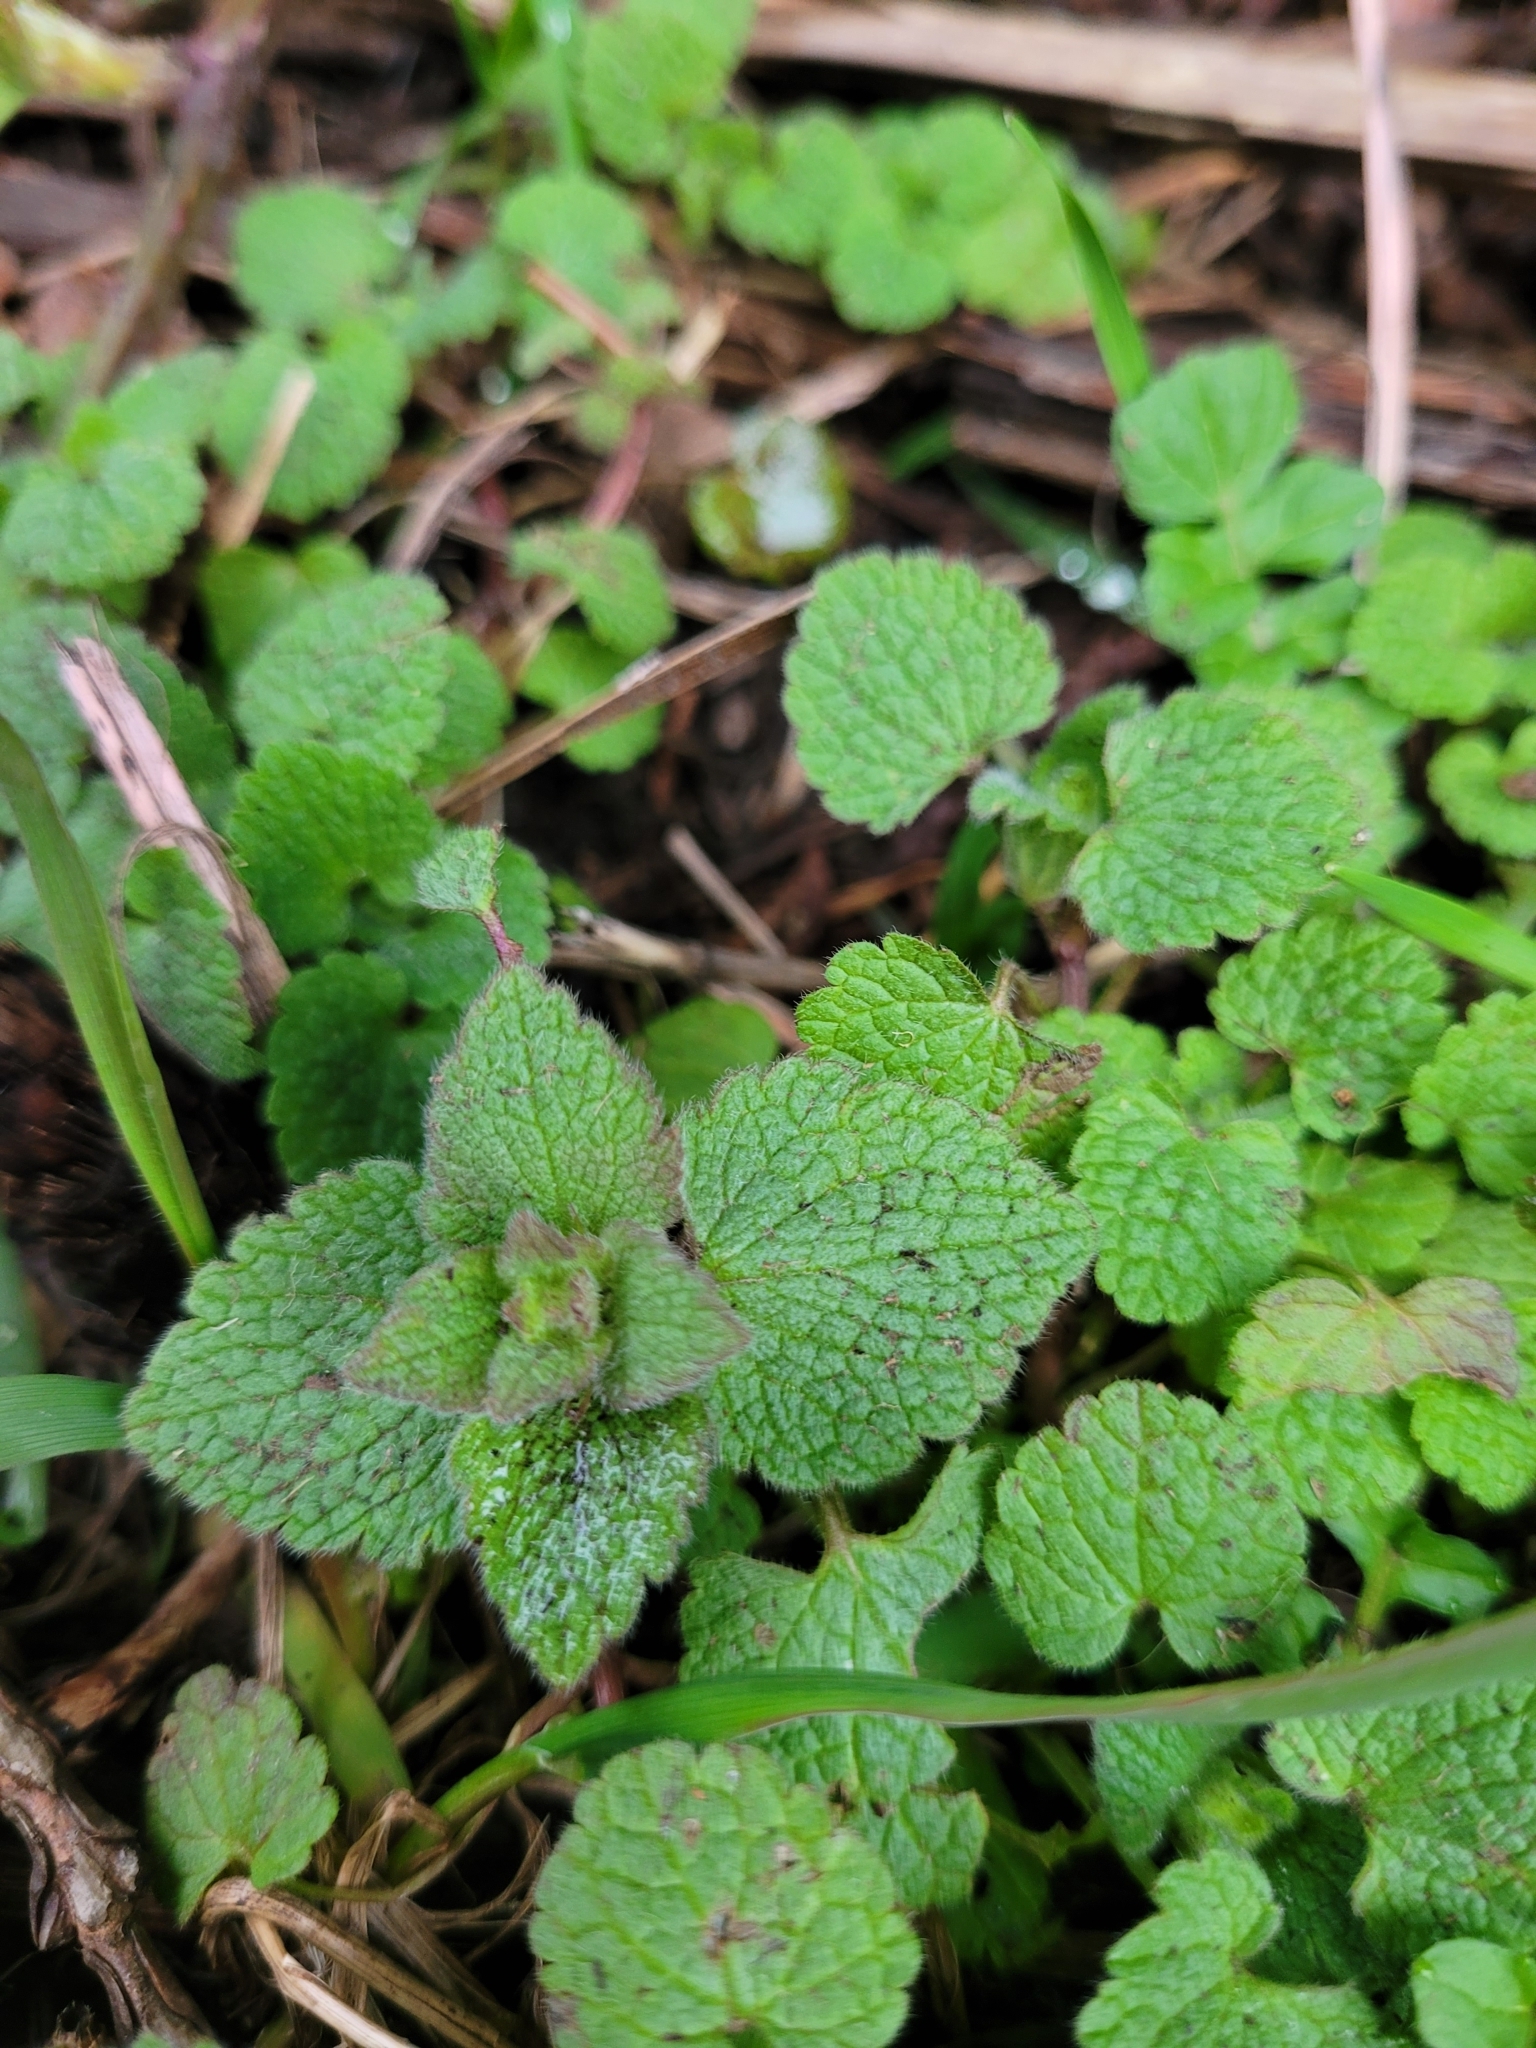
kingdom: Plantae
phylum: Tracheophyta
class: Magnoliopsida
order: Lamiales
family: Lamiaceae
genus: Lamium
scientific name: Lamium purpureum
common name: Red dead-nettle
